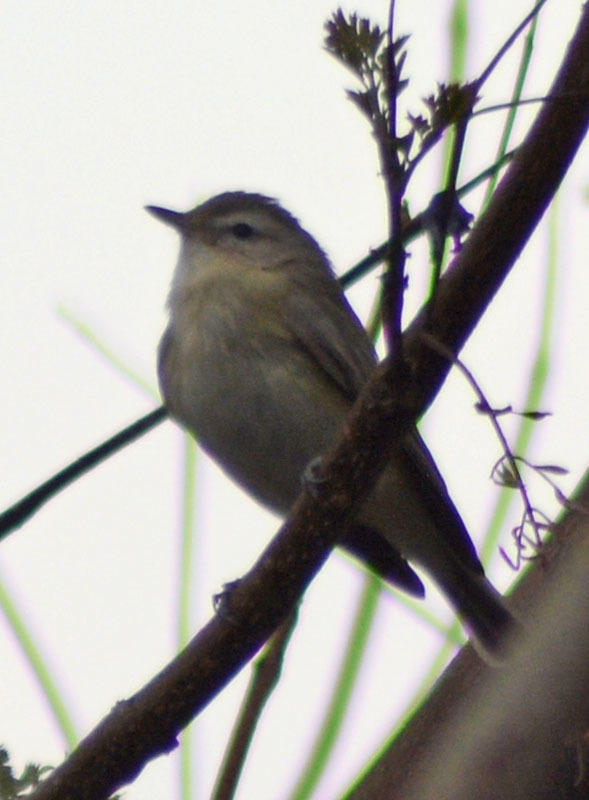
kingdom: Animalia
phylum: Chordata
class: Aves
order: Passeriformes
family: Vireonidae
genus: Vireo
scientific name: Vireo gilvus
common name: Warbling vireo
